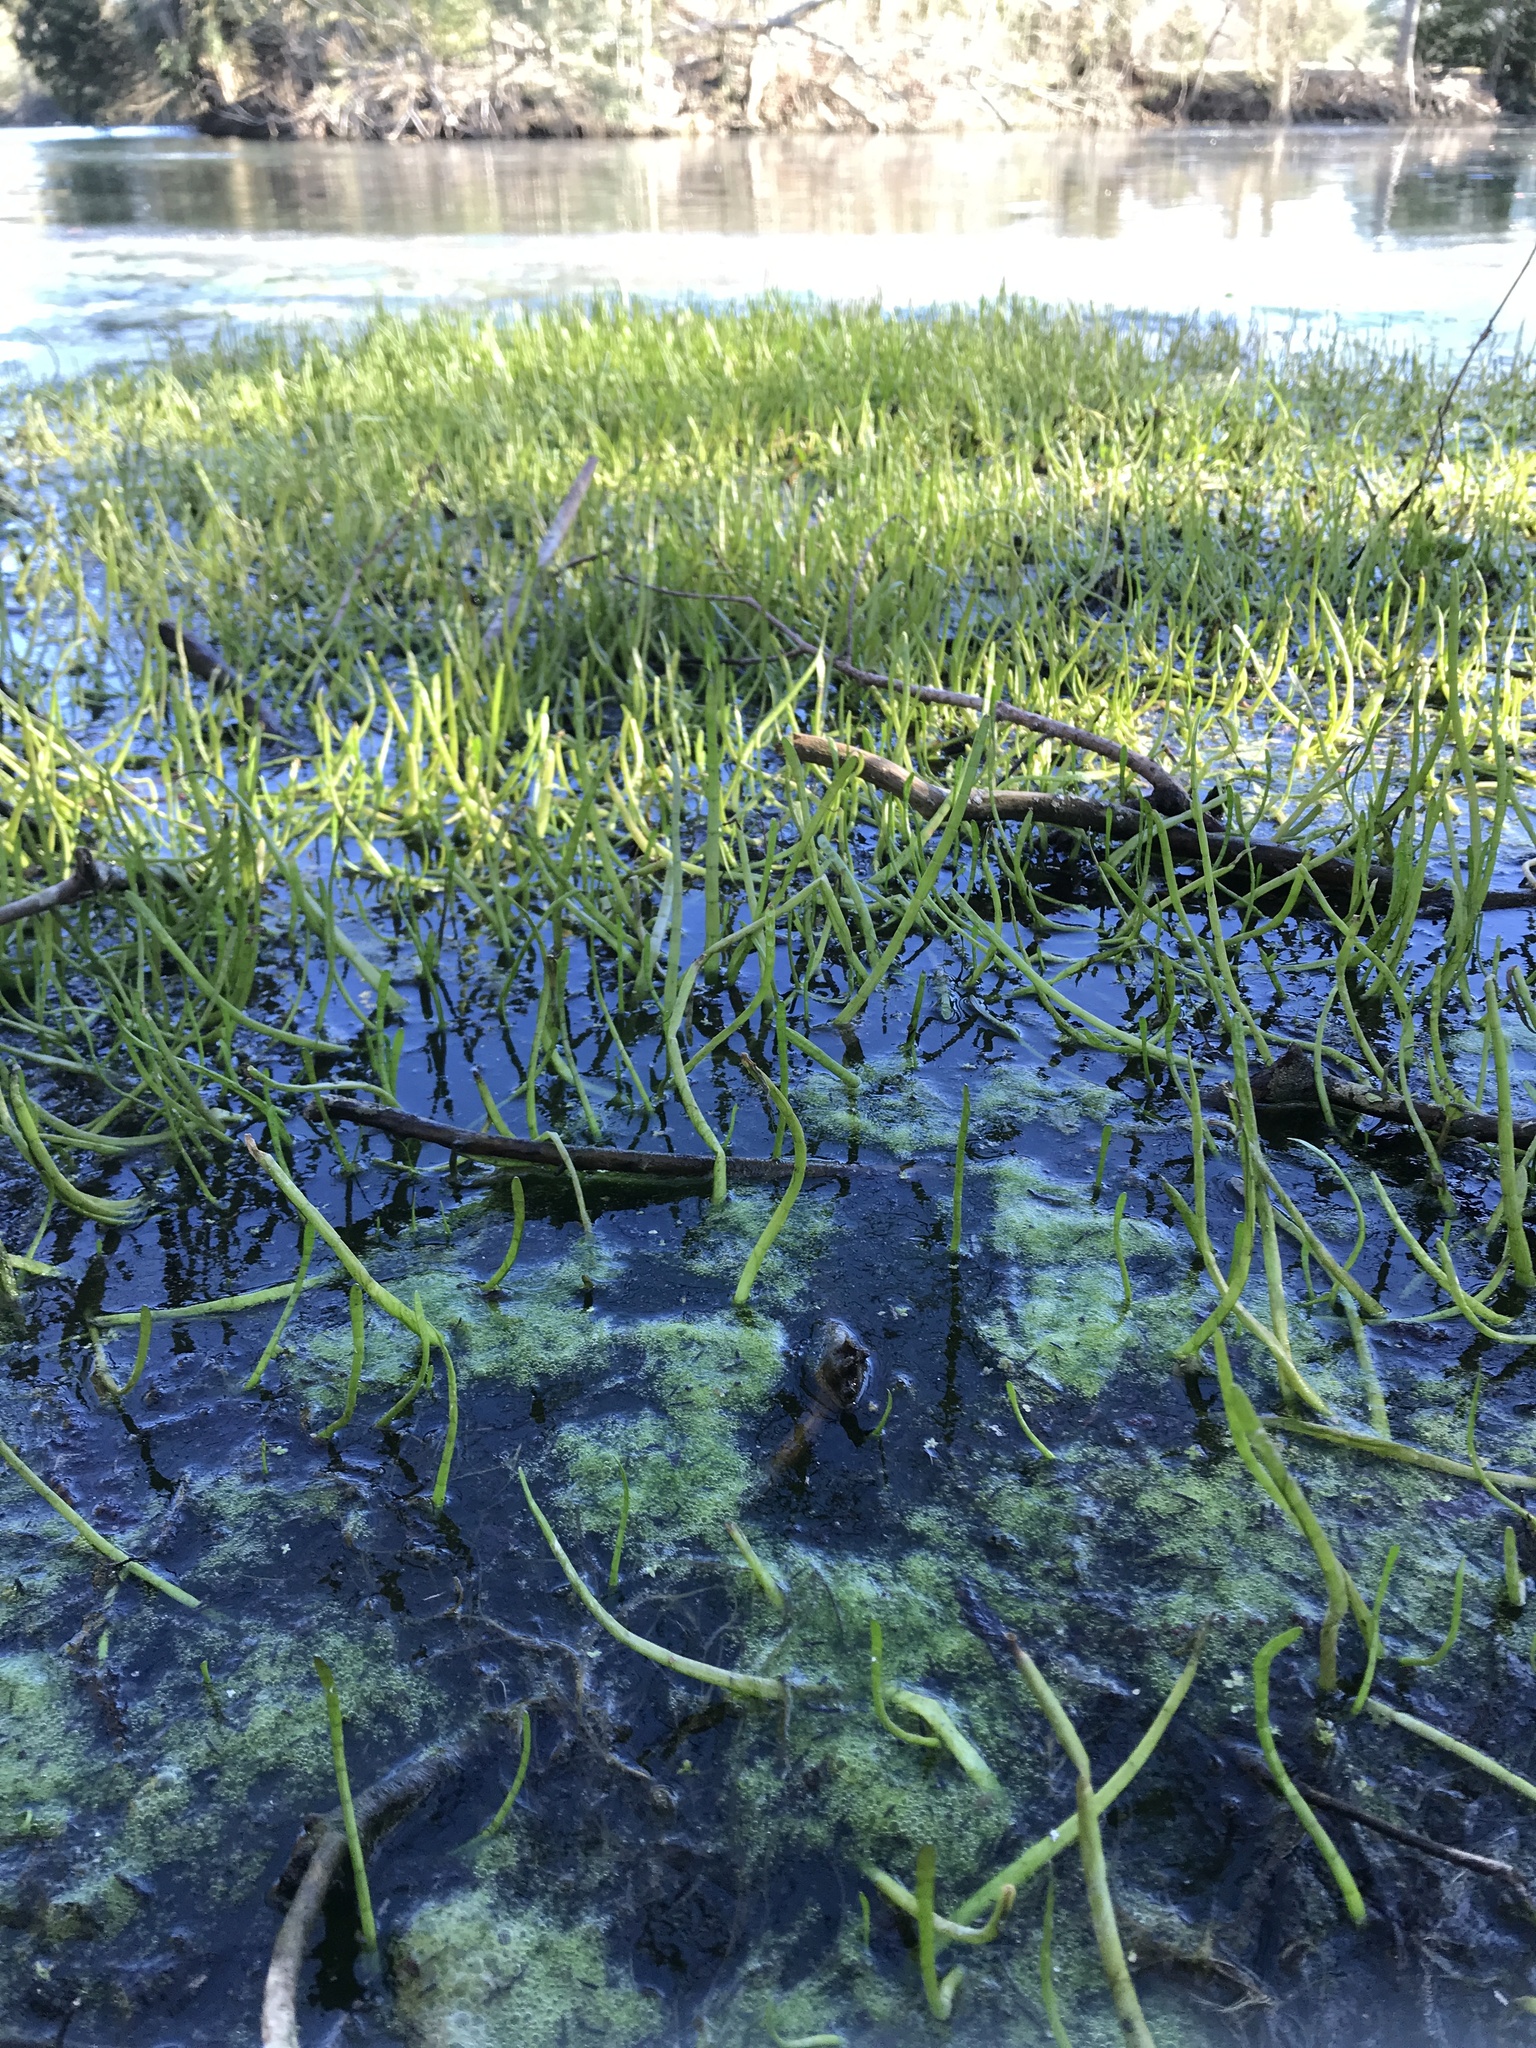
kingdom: Plantae
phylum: Tracheophyta
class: Magnoliopsida
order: Apiales
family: Apiaceae
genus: Lilaeopsis
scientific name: Lilaeopsis carolinensis
